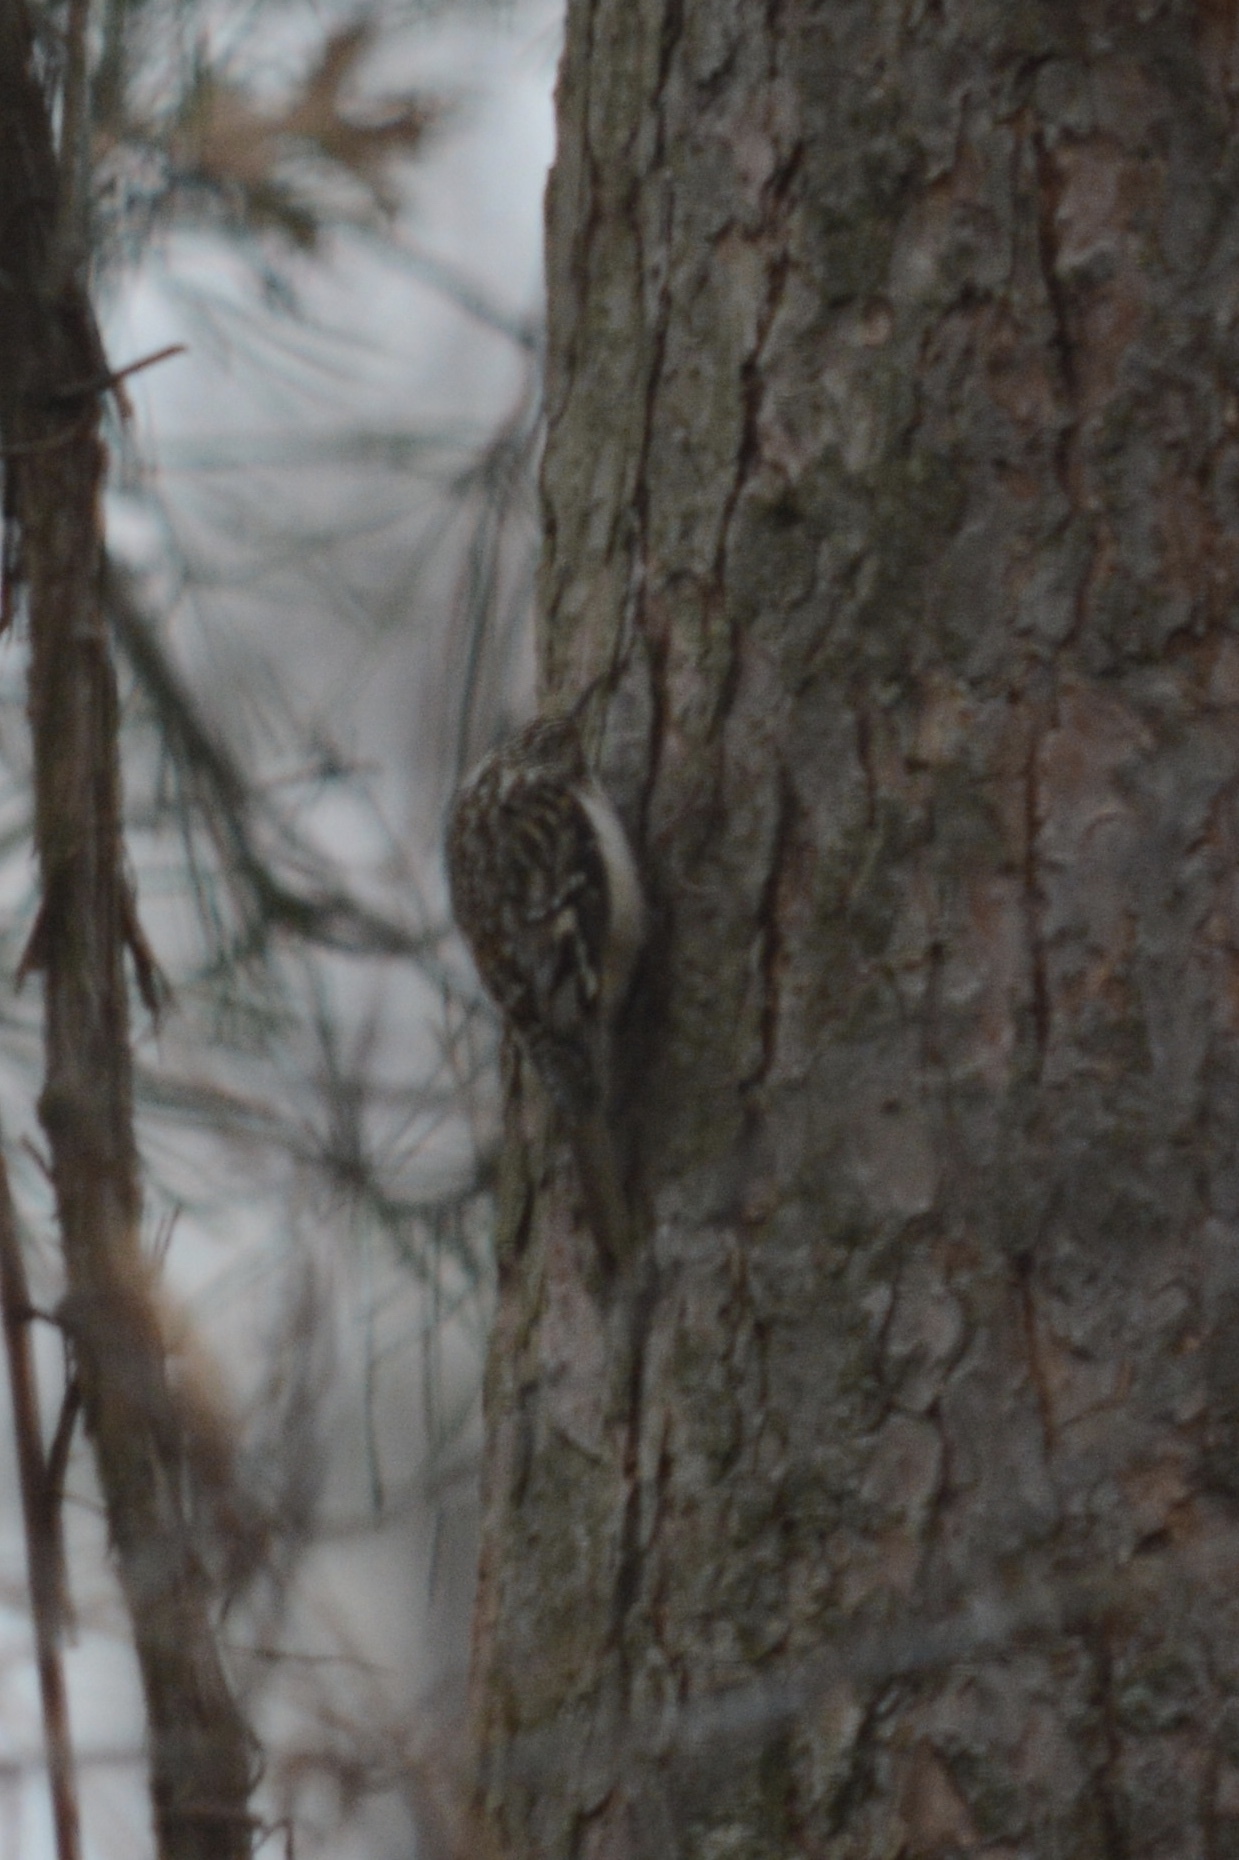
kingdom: Animalia
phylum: Chordata
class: Aves
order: Passeriformes
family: Certhiidae
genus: Certhia
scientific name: Certhia americana
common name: Brown creeper
